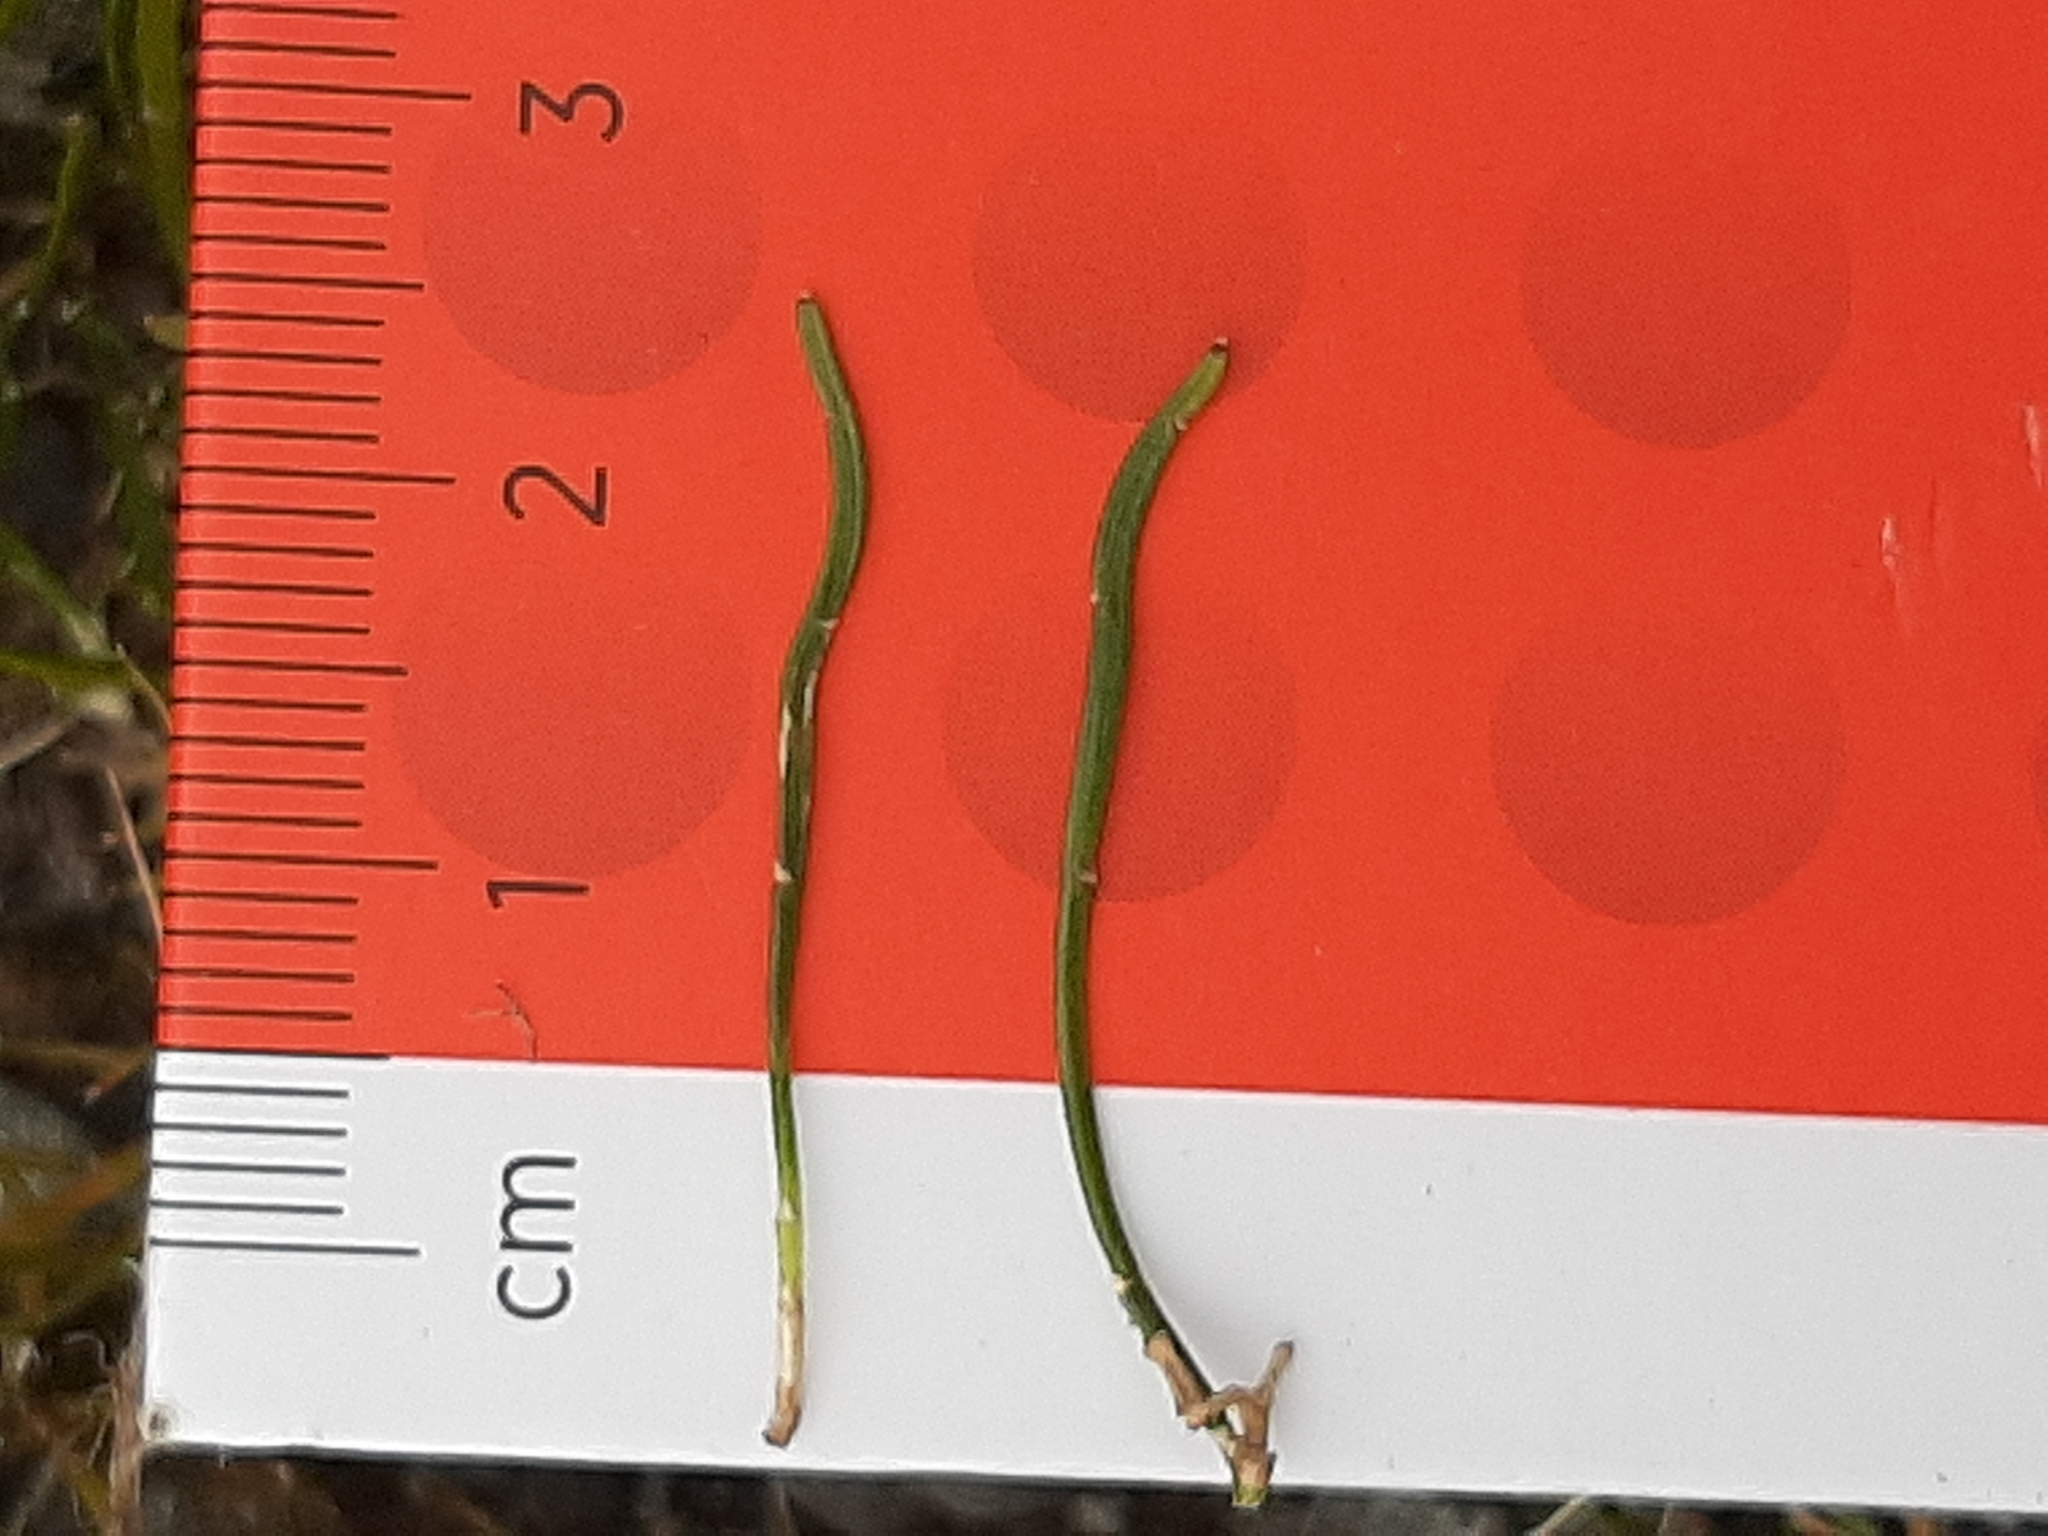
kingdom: Plantae
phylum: Tracheophyta
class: Magnoliopsida
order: Fabales
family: Fabaceae
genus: Carmichaelia
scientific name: Carmichaelia uniflora
